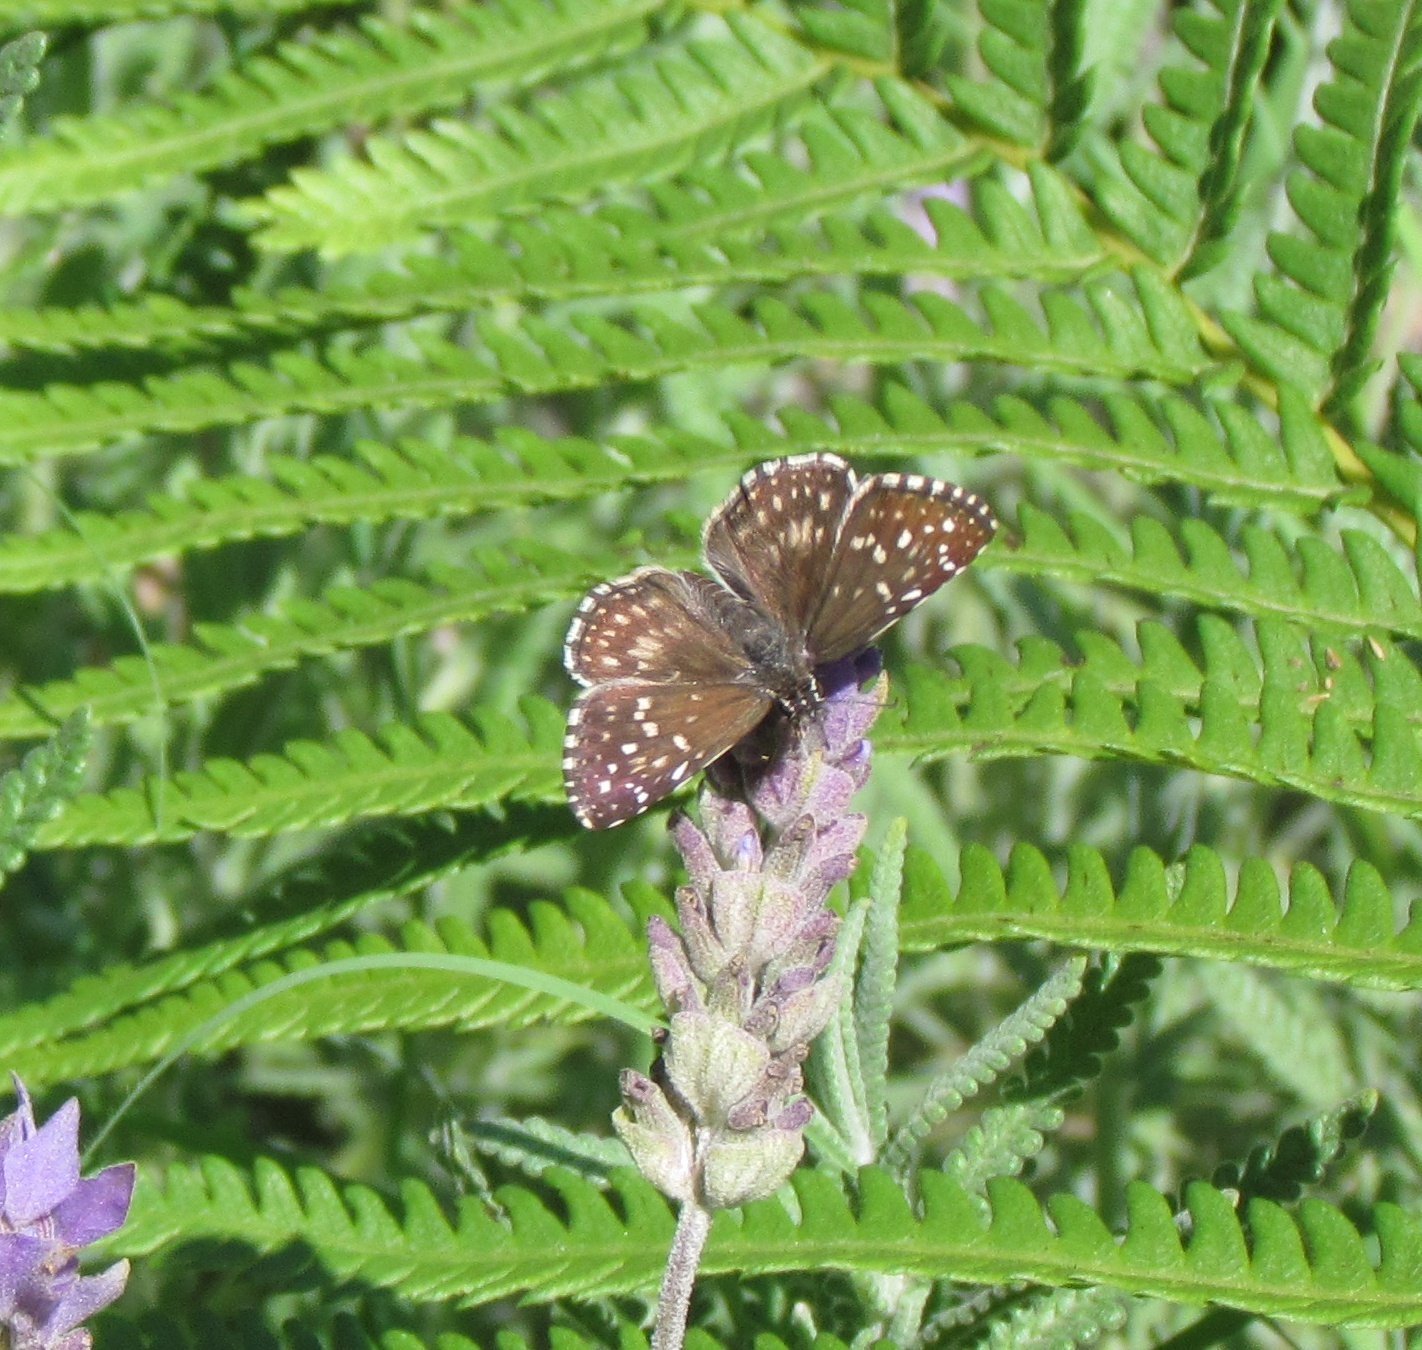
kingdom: Animalia
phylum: Arthropoda
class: Insecta
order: Lepidoptera
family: Hesperiidae
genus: Pyrgus
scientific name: Pyrgus oileus
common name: Tropical checkered-skipper
